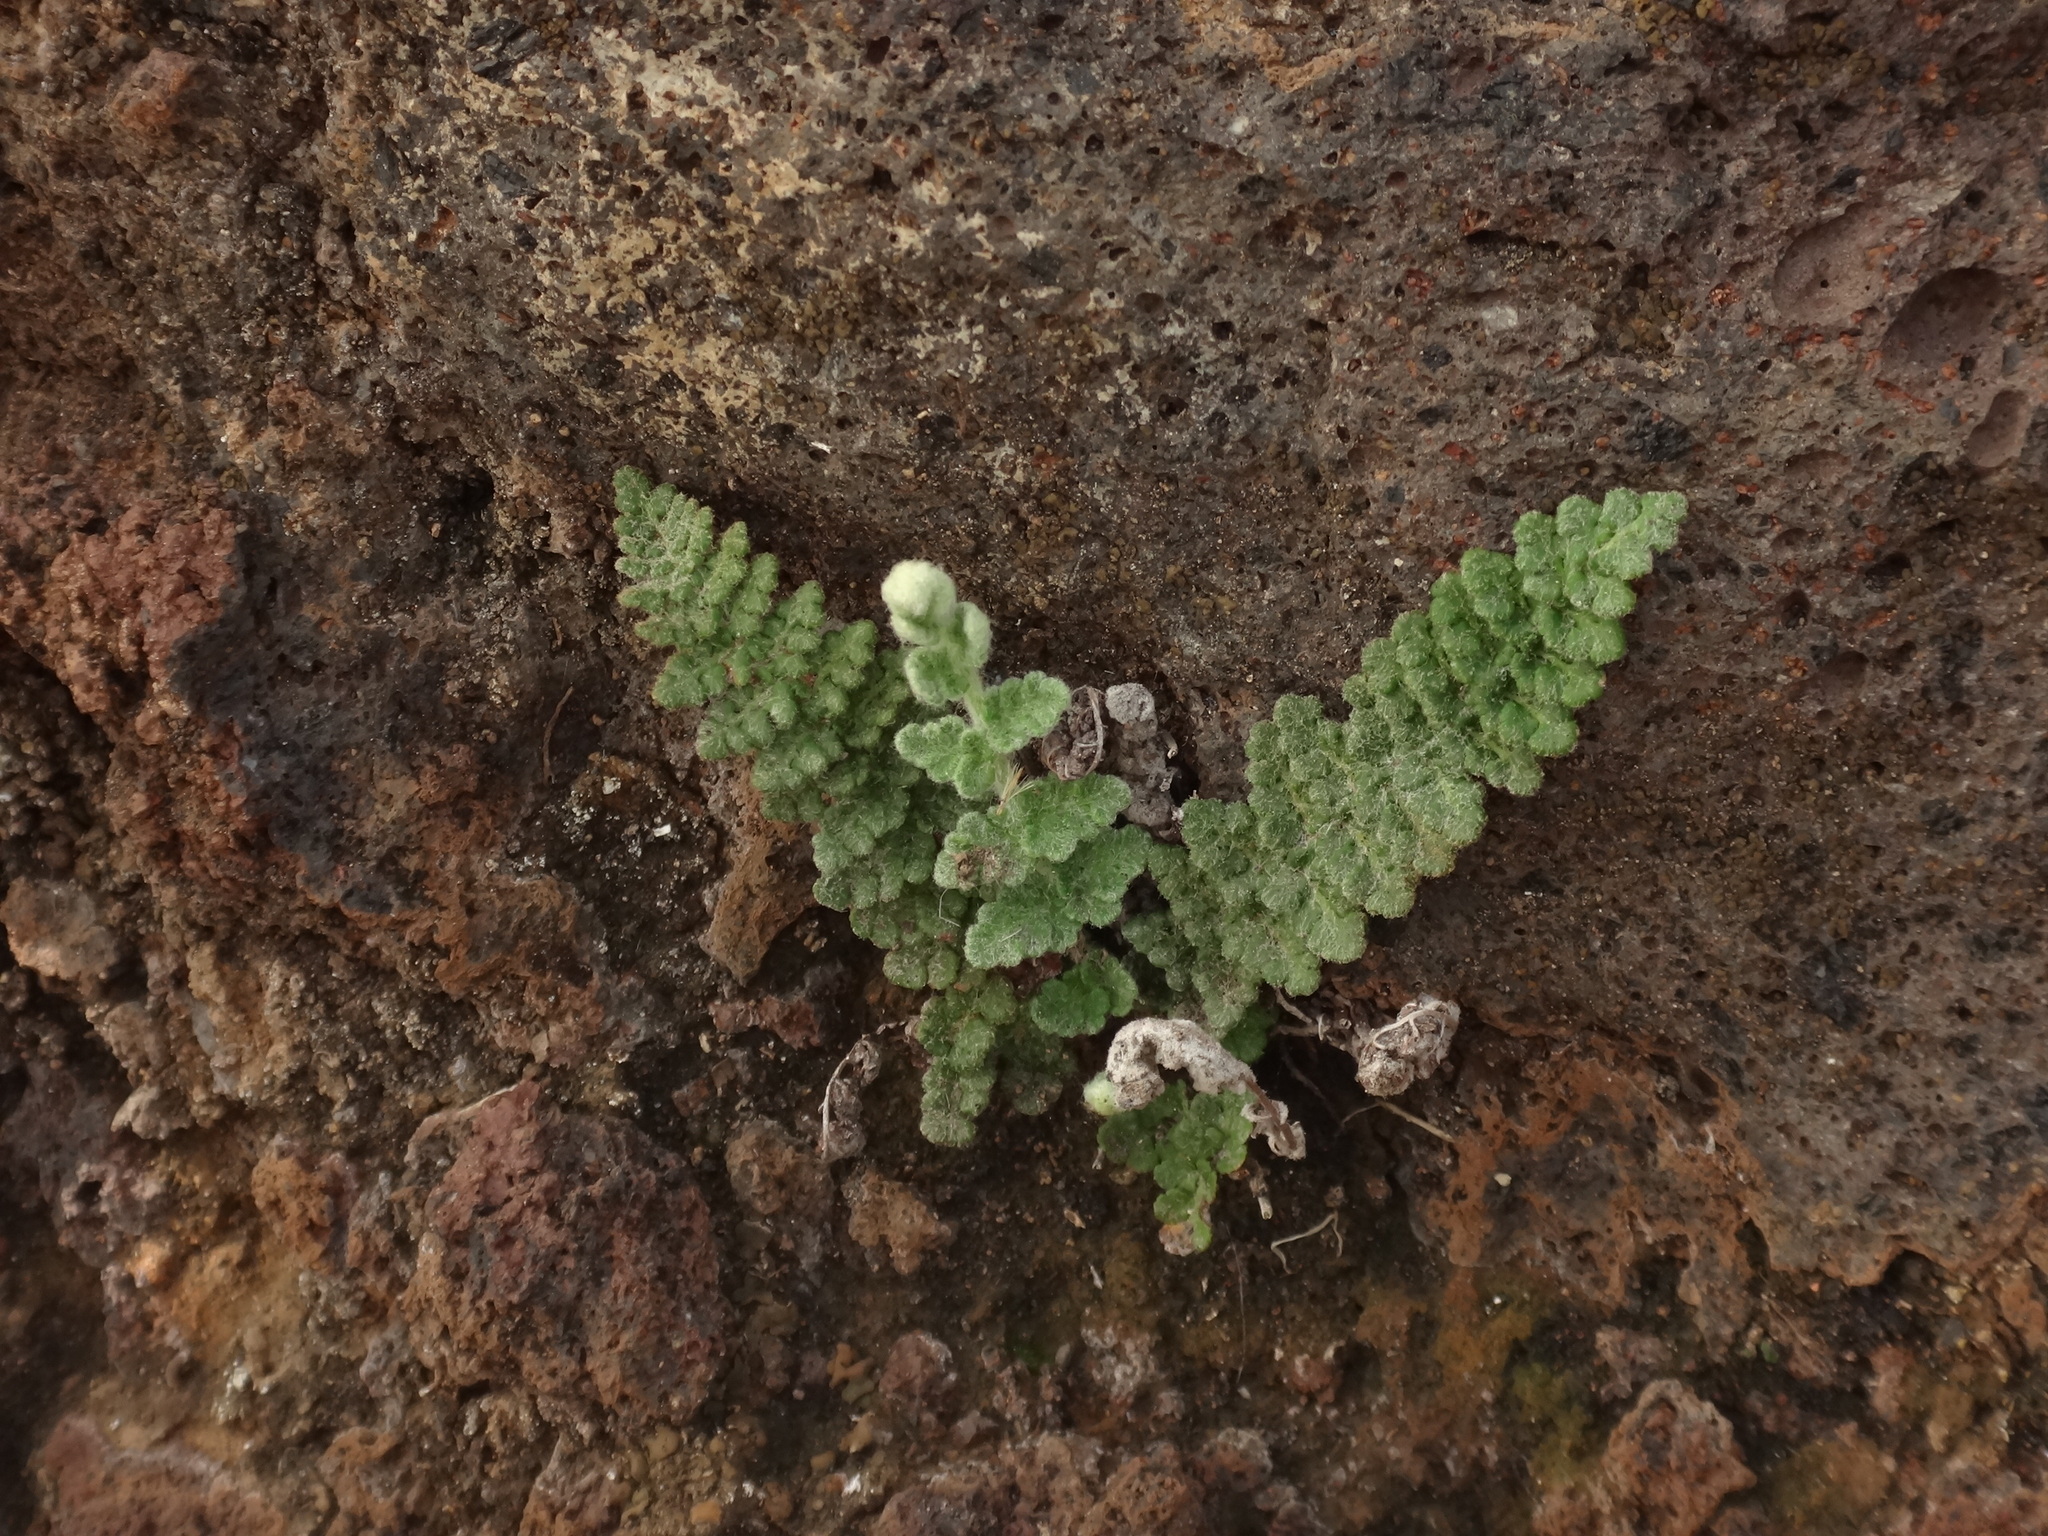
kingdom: Plantae
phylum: Tracheophyta
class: Polypodiopsida
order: Polypodiales
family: Pteridaceae
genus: Cosentinia
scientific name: Cosentinia vellea
